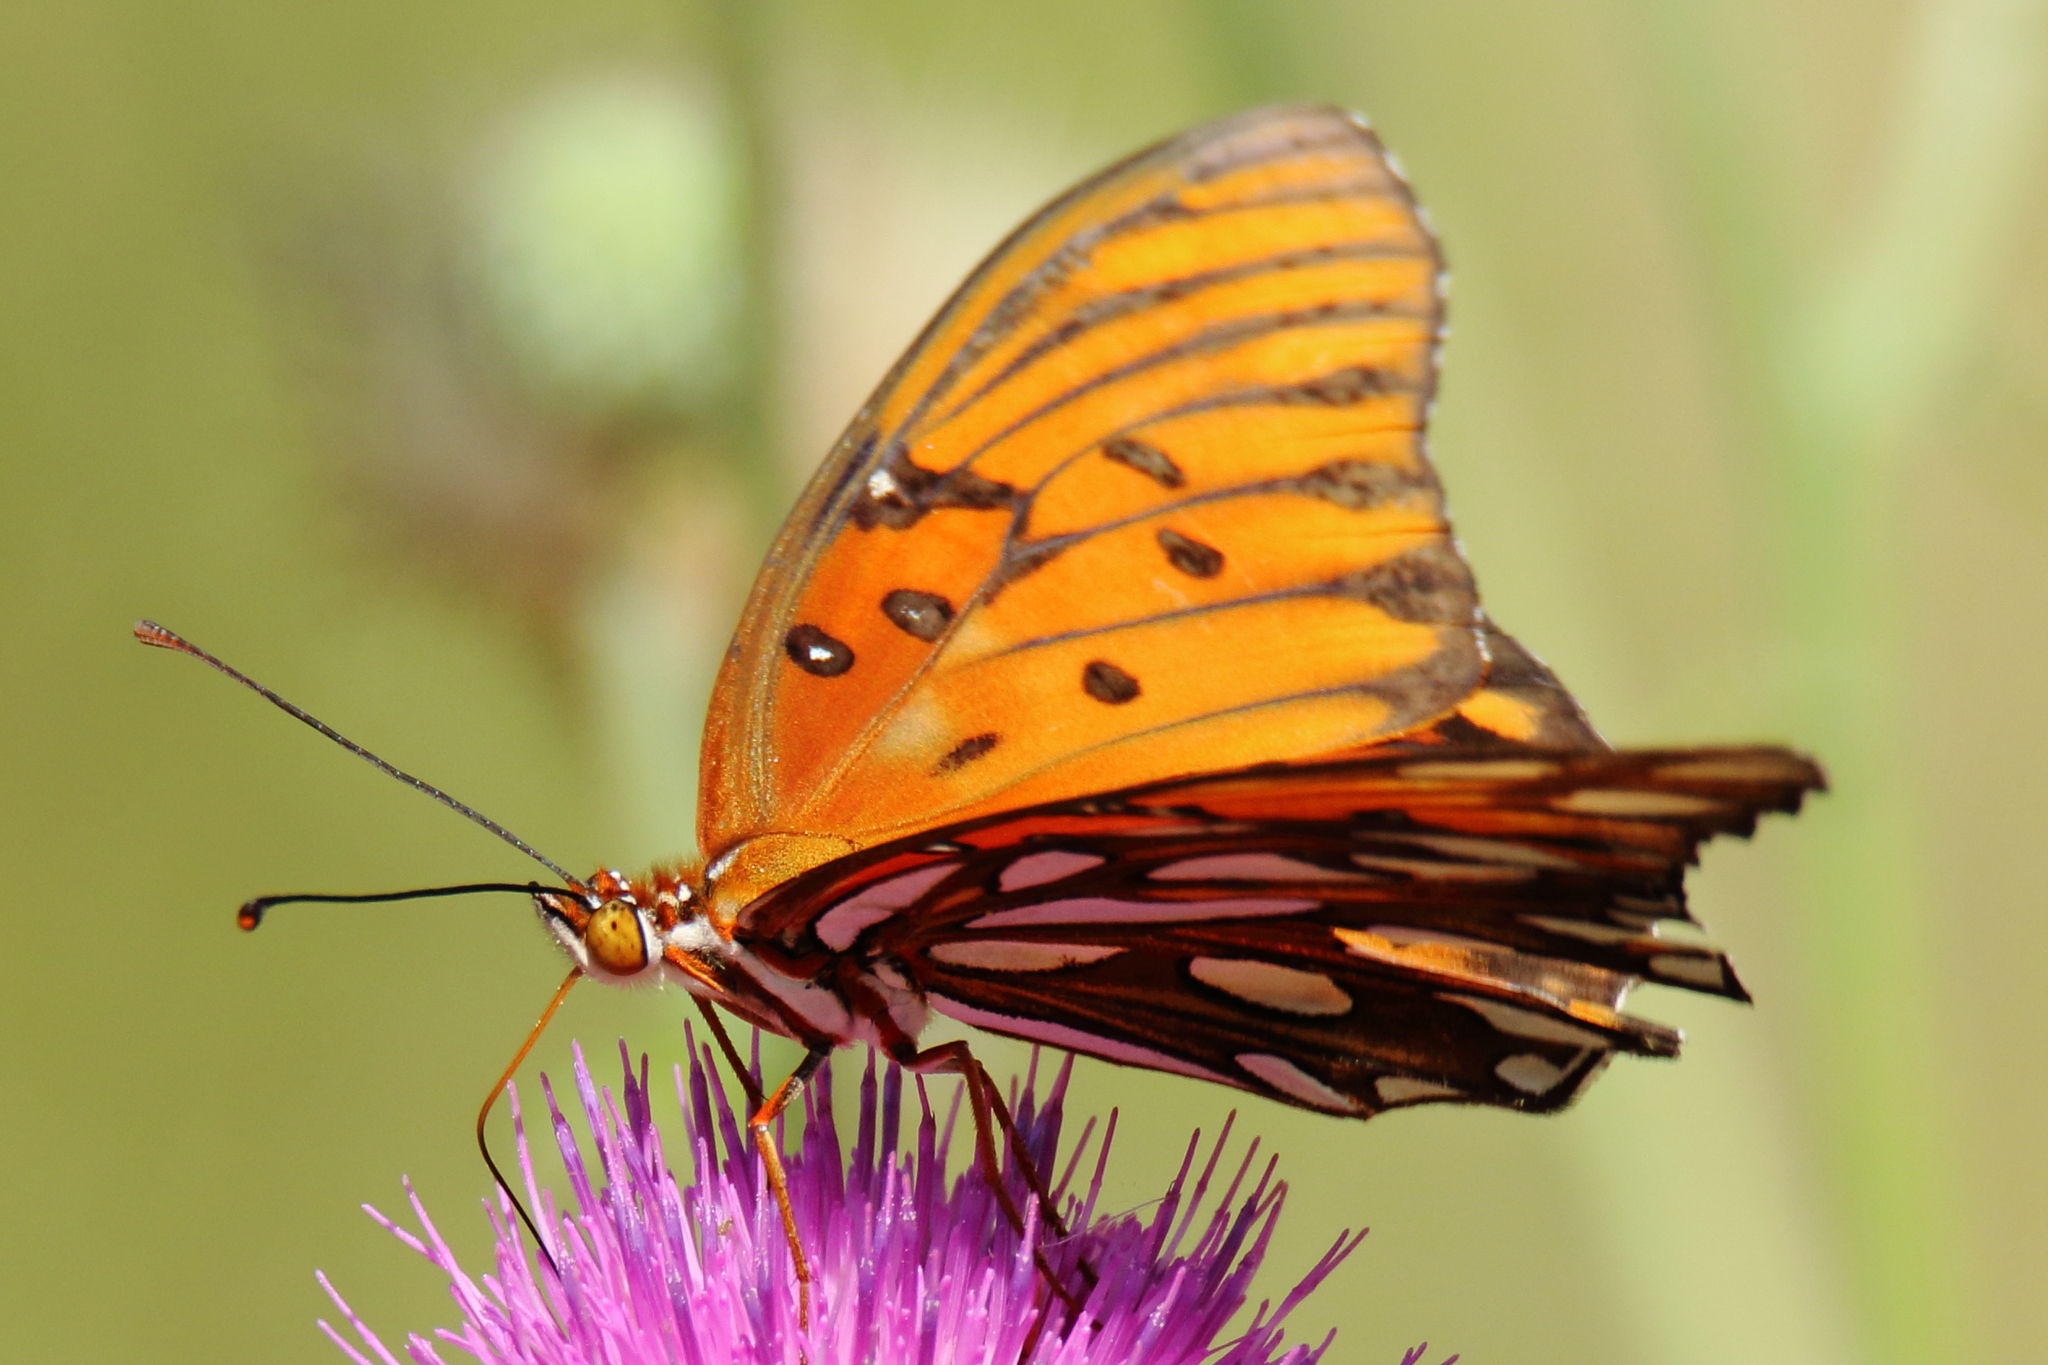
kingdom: Animalia
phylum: Arthropoda
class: Insecta
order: Lepidoptera
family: Nymphalidae
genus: Dione
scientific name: Dione vanillae
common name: Gulf fritillary
